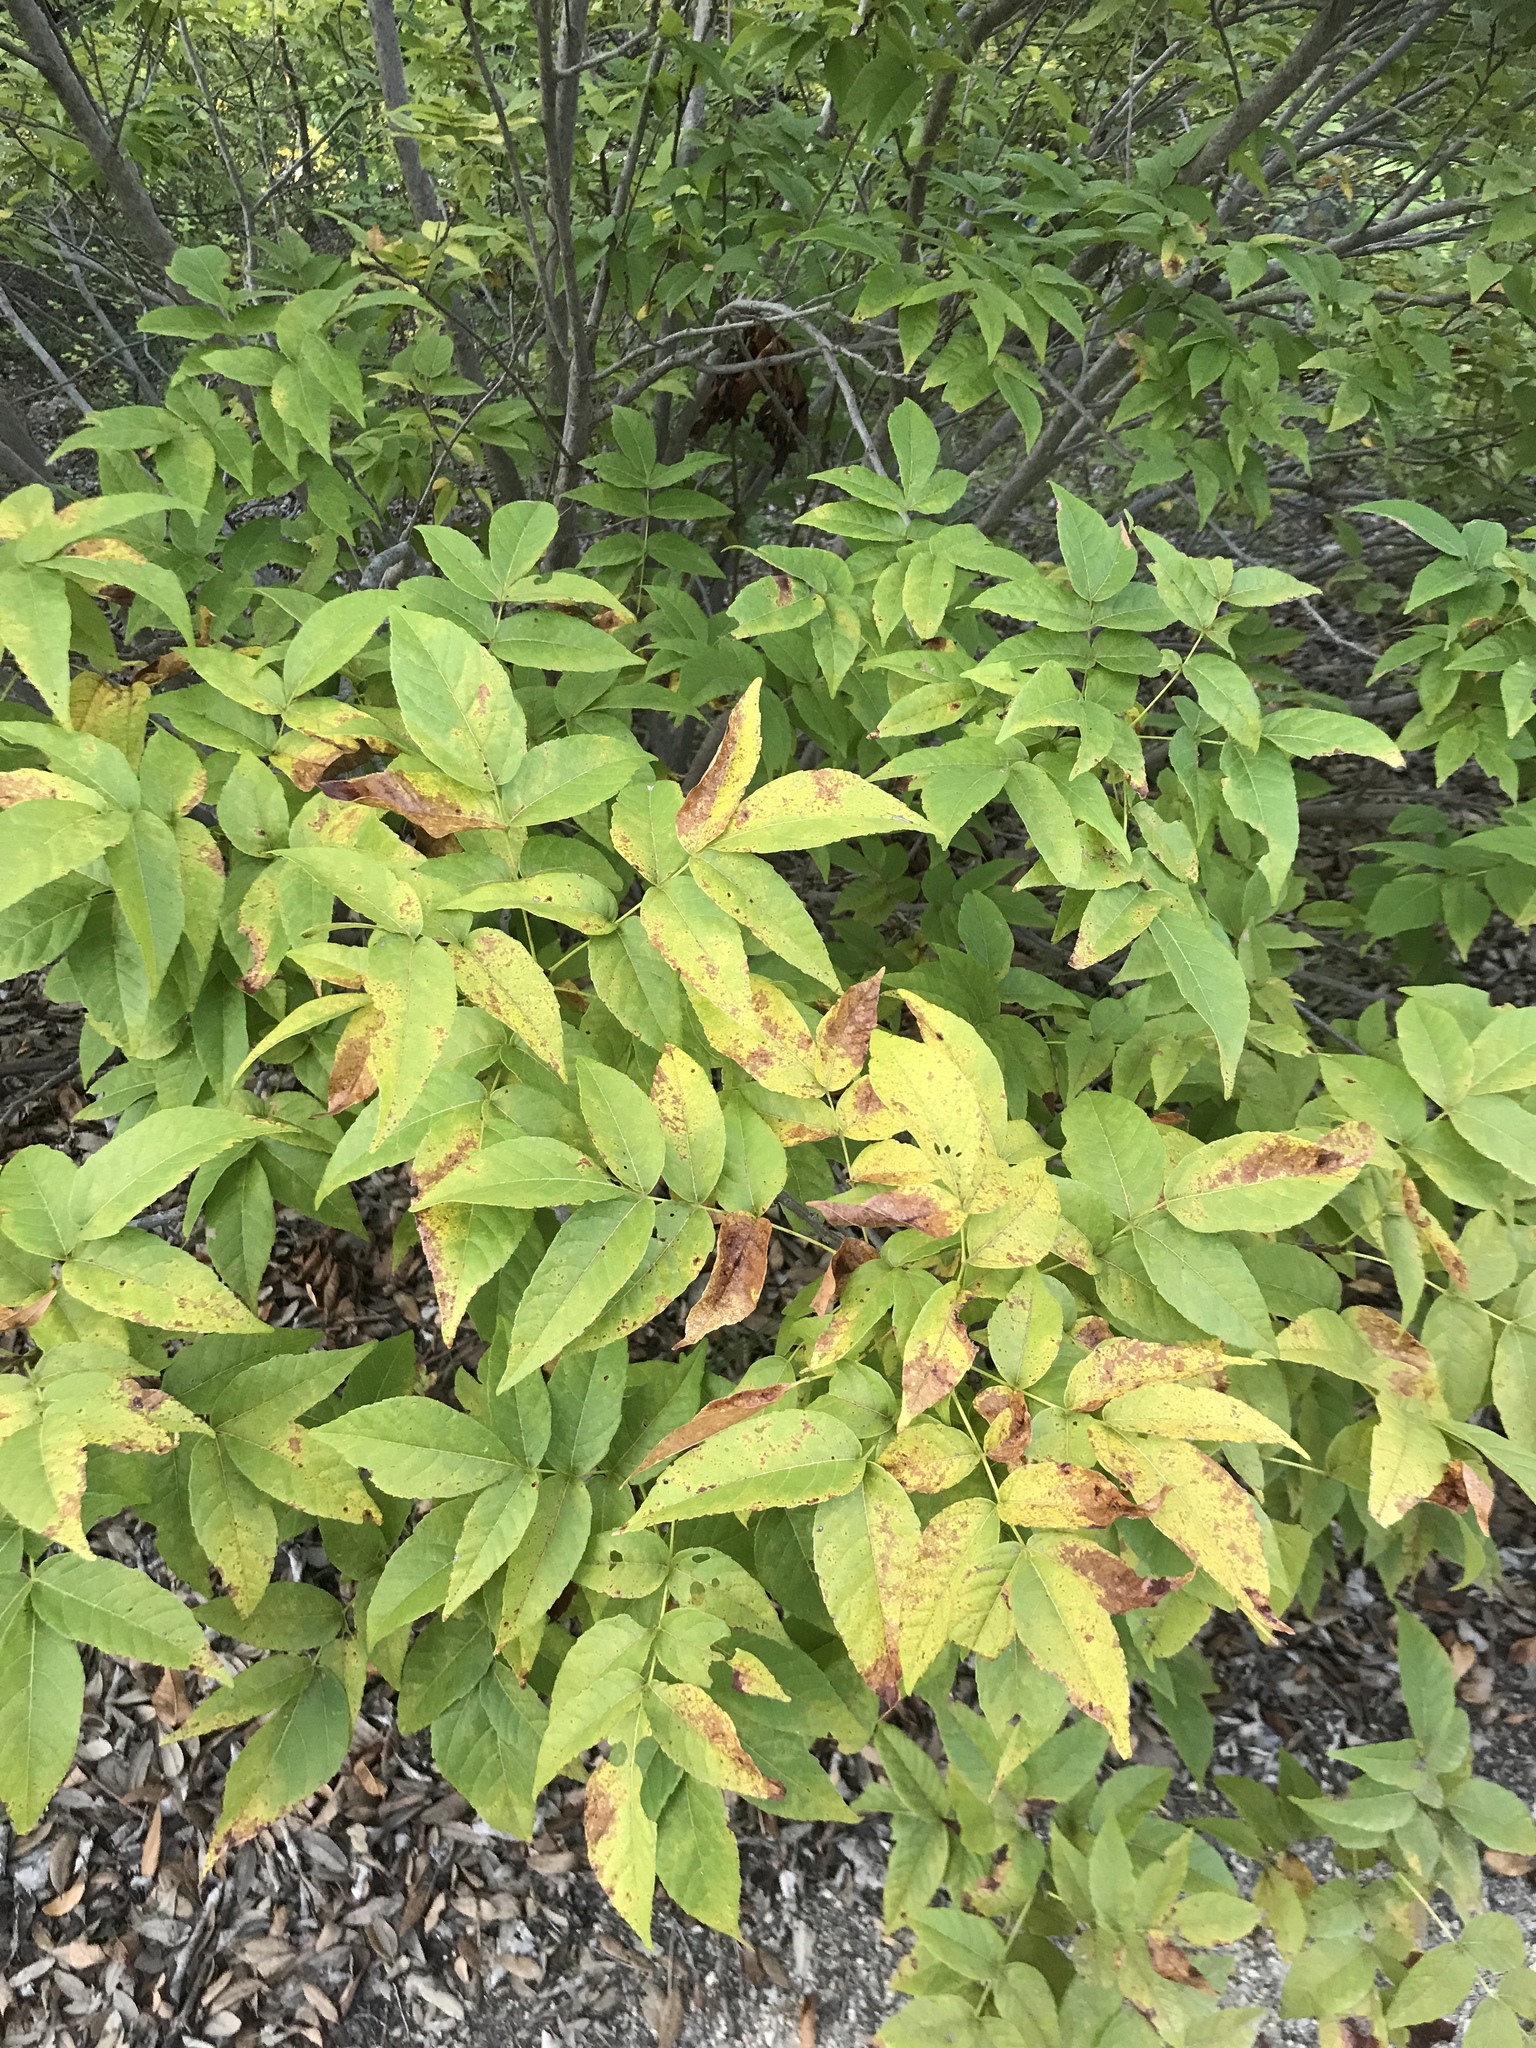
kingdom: Plantae
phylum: Tracheophyta
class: Magnoliopsida
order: Sapindales
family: Sapindaceae
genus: Ungnadia
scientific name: Ungnadia speciosa
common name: Texas-buckeye
